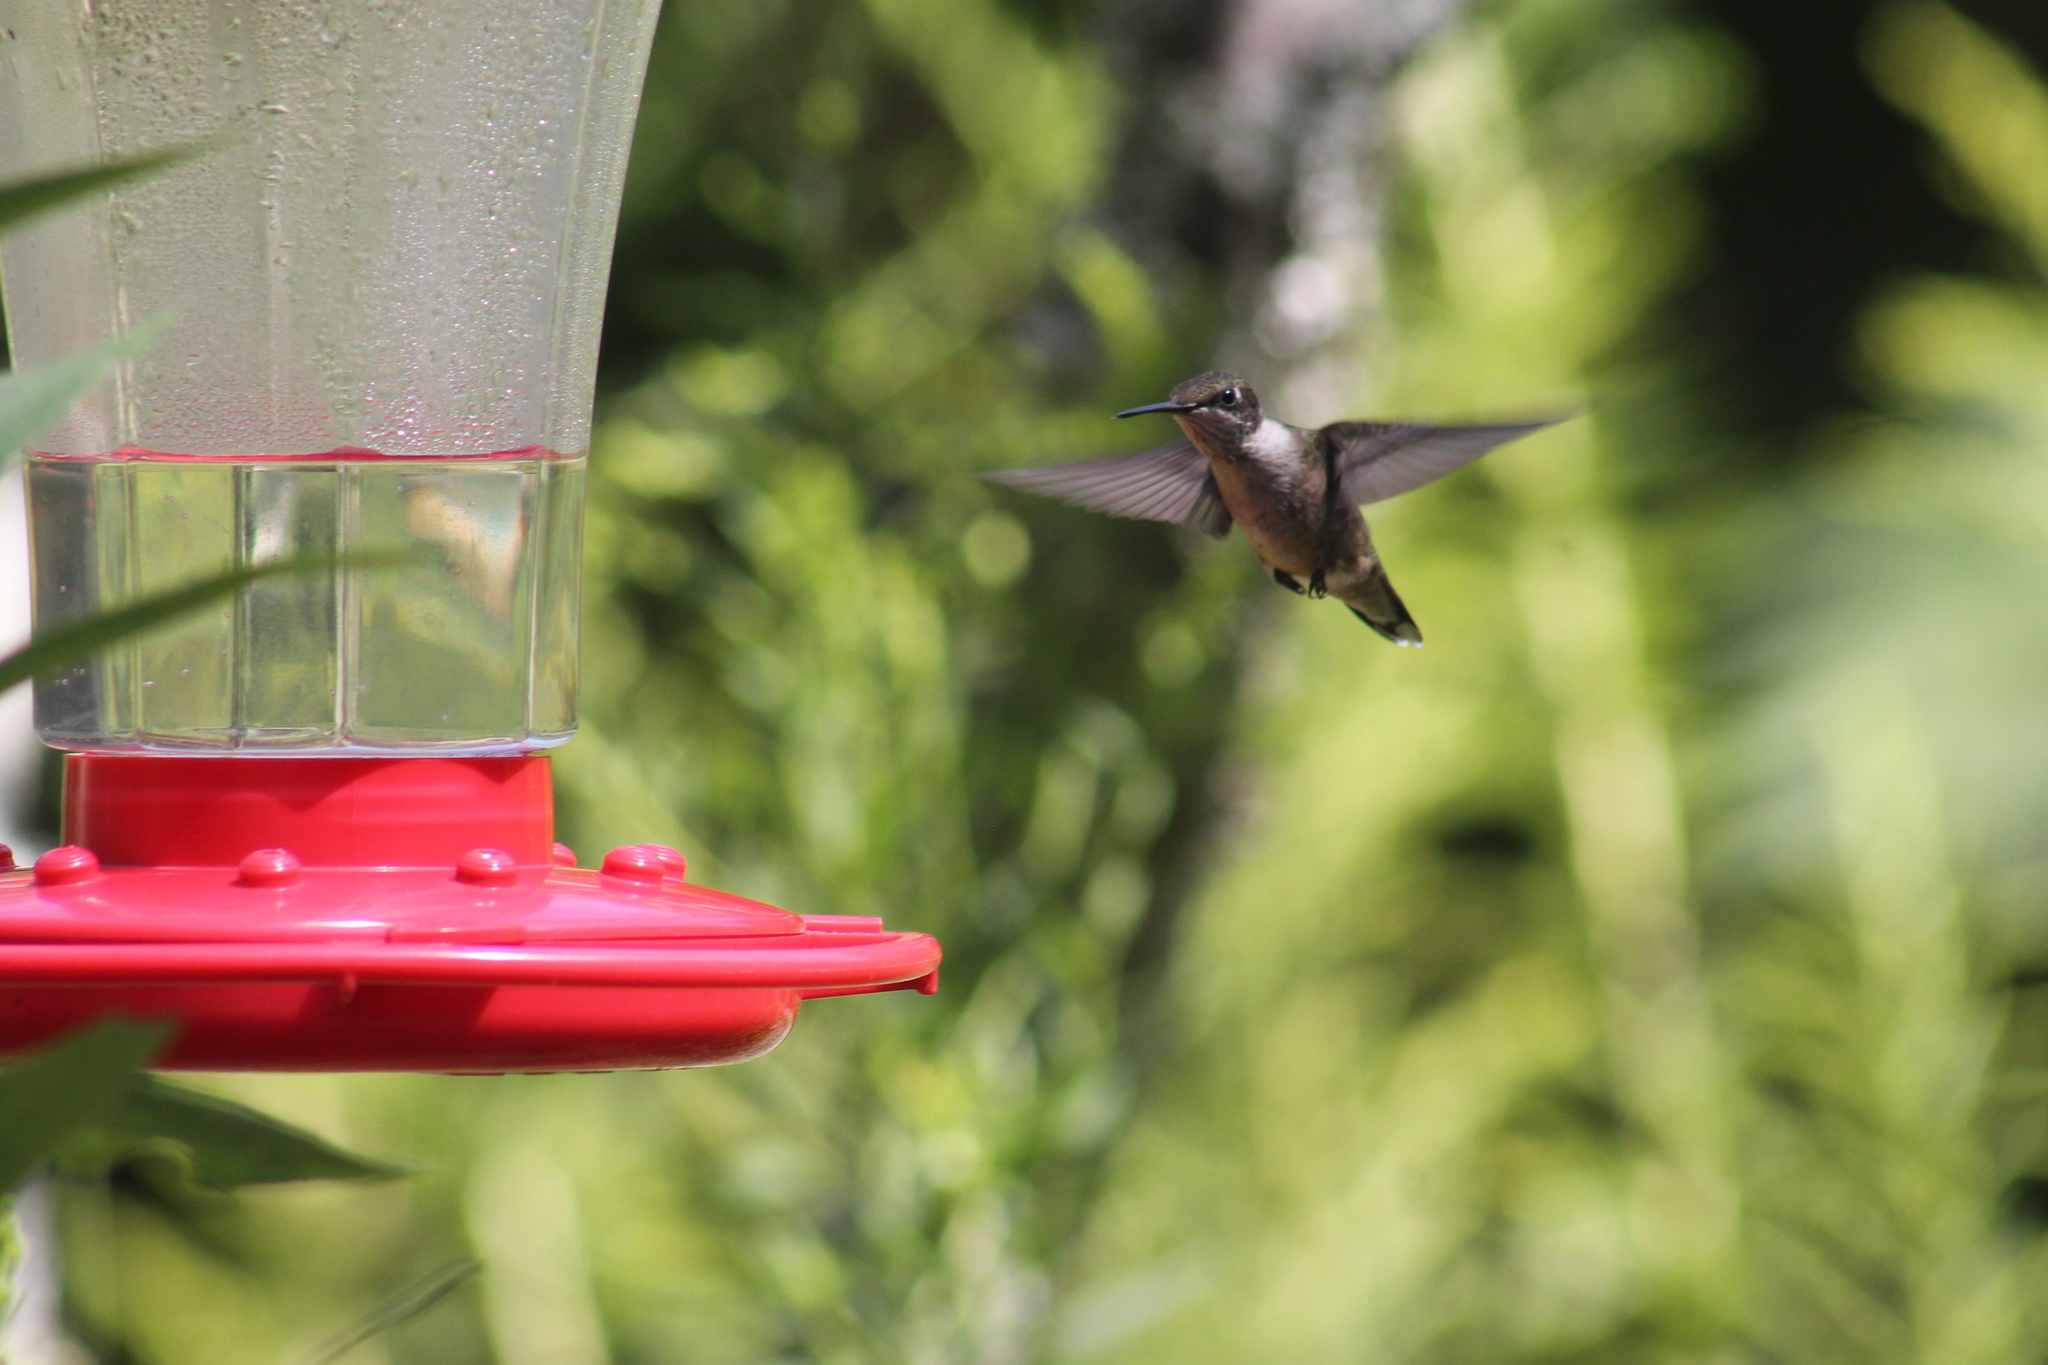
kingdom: Animalia
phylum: Chordata
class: Aves
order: Apodiformes
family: Trochilidae
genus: Archilochus
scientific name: Archilochus colubris
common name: Ruby-throated hummingbird
